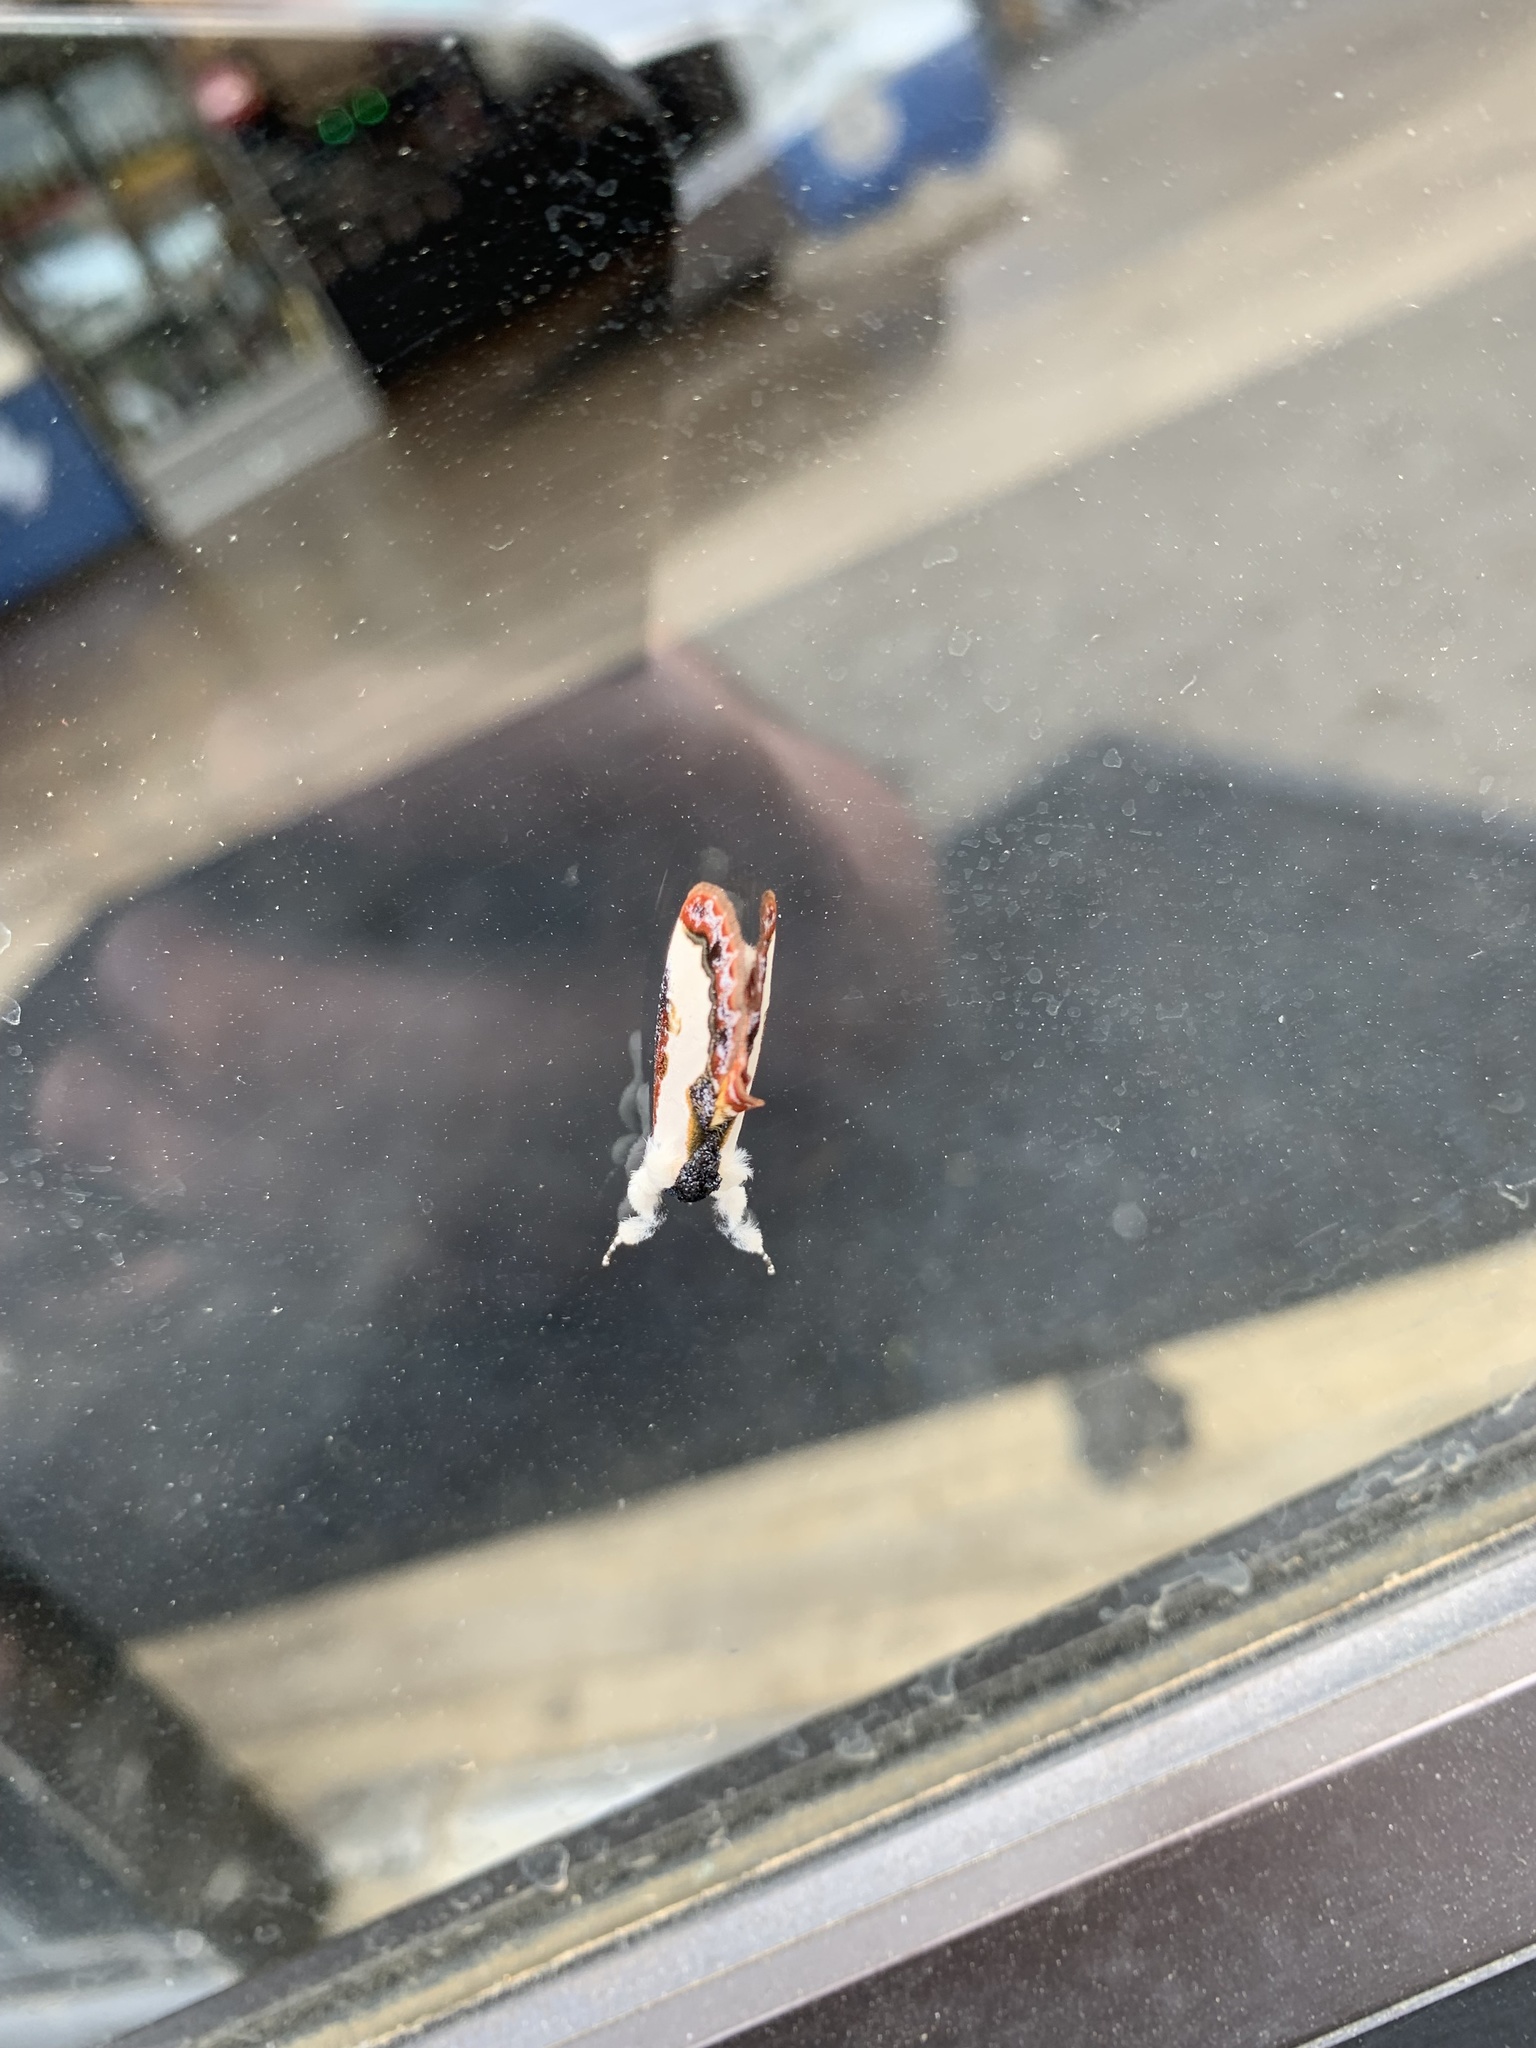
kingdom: Animalia
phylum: Arthropoda
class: Insecta
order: Lepidoptera
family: Noctuidae
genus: Eudryas
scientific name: Eudryas unio
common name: Pearly wood-nymph
